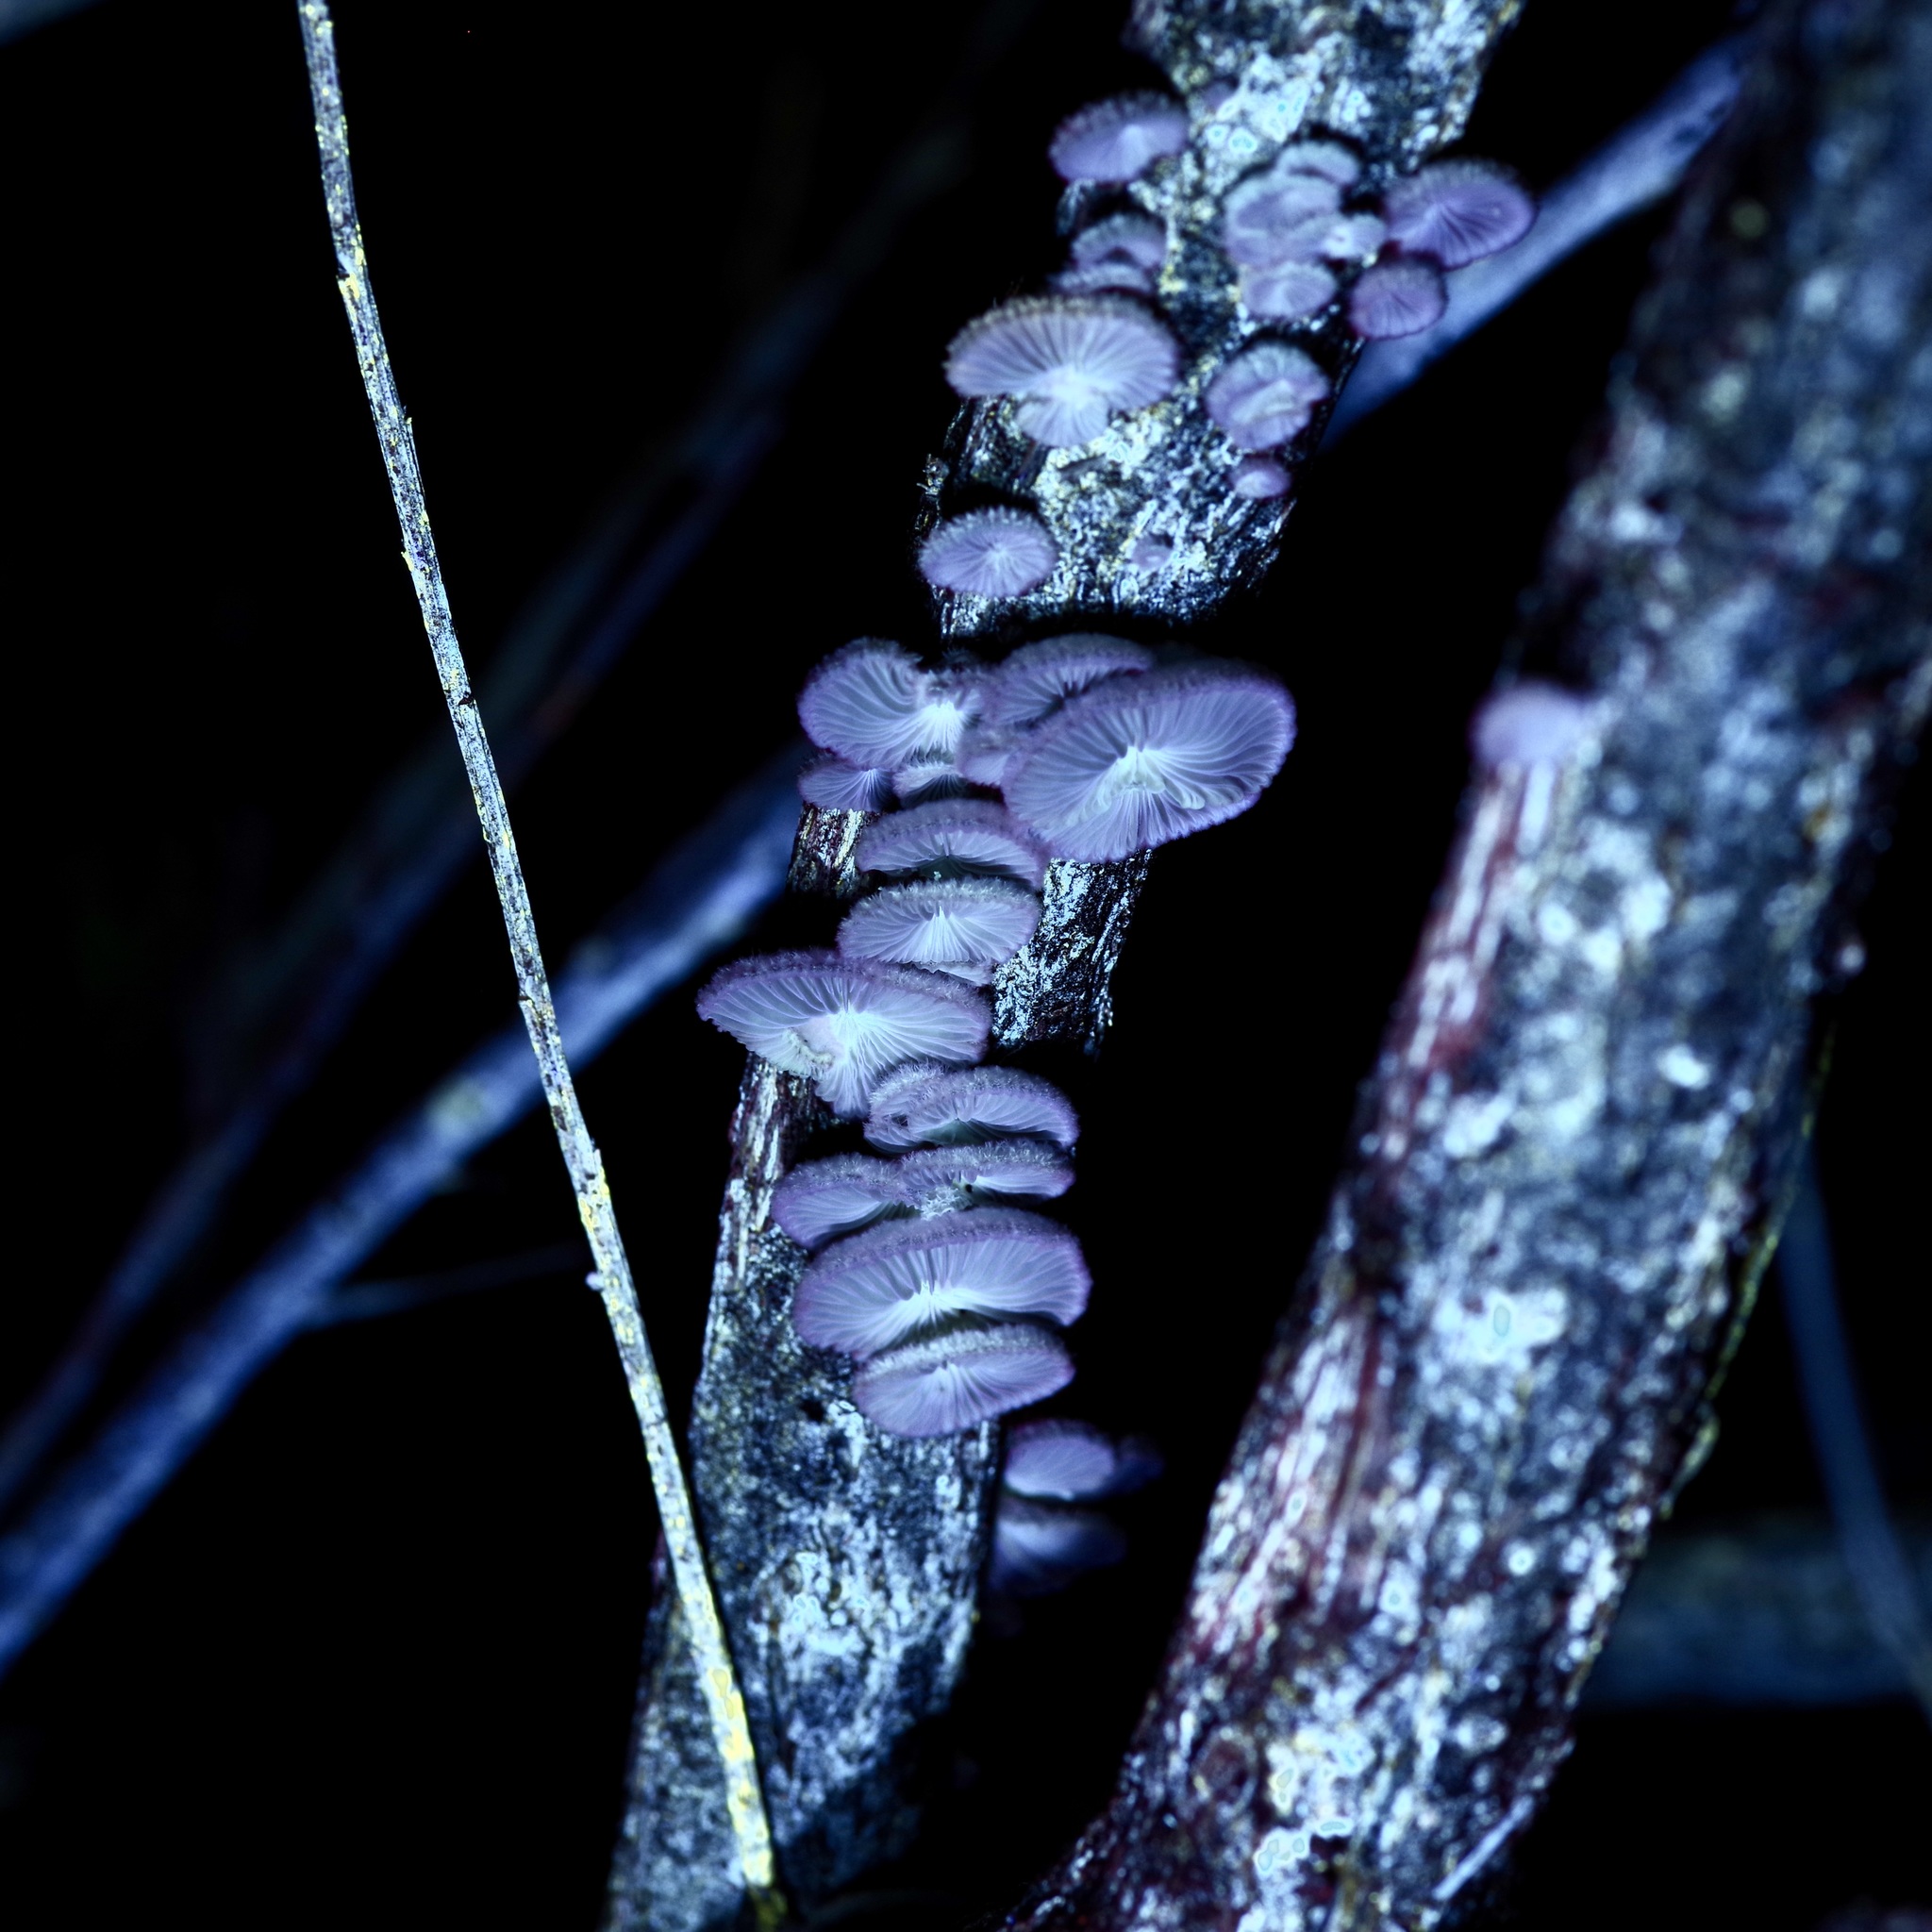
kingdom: Fungi
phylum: Basidiomycota
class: Agaricomycetes
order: Agaricales
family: Schizophyllaceae
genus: Schizophyllum
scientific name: Schizophyllum commune
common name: Common porecrust
